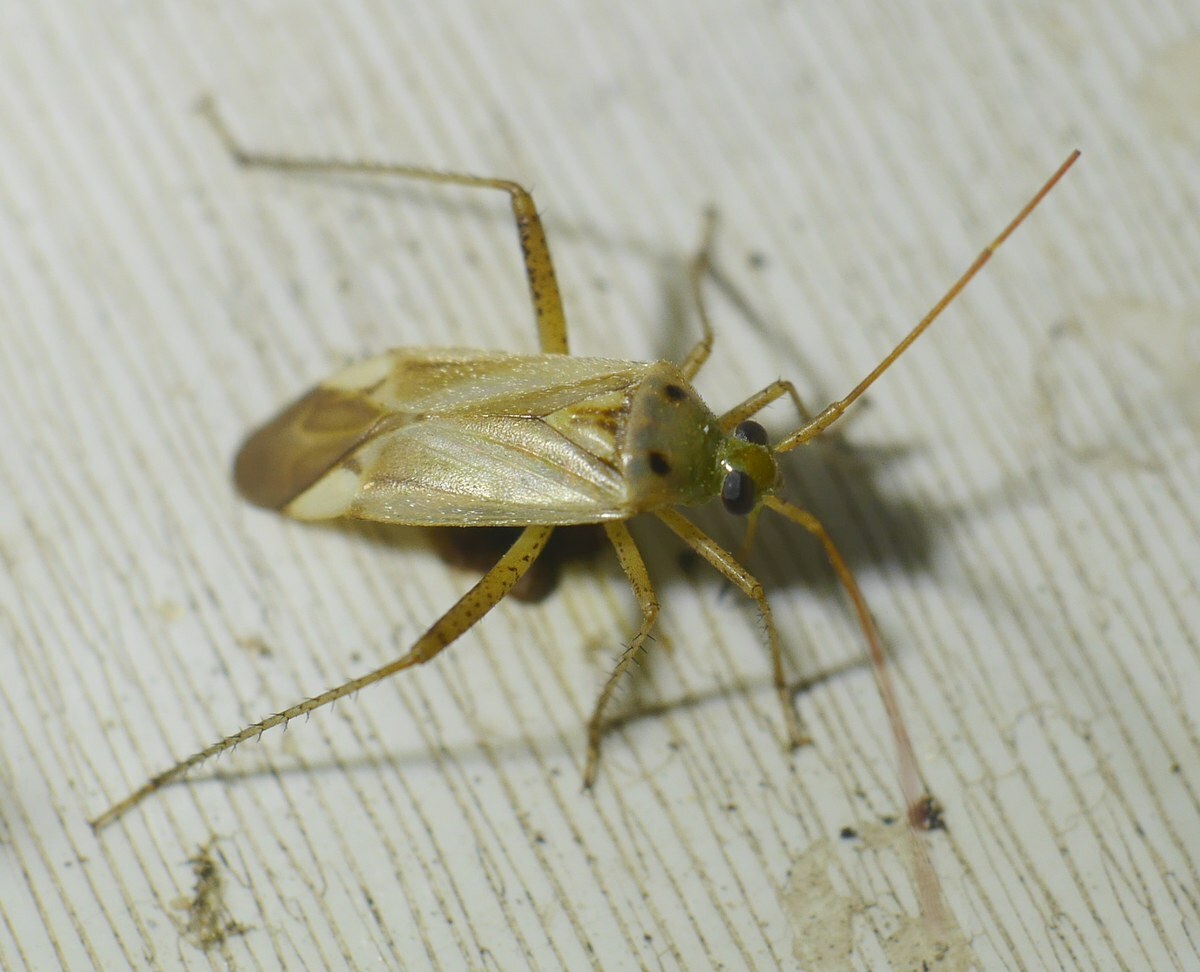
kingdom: Animalia
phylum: Arthropoda
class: Insecta
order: Hemiptera
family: Miridae
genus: Adelphocoris
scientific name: Adelphocoris lineolatus
